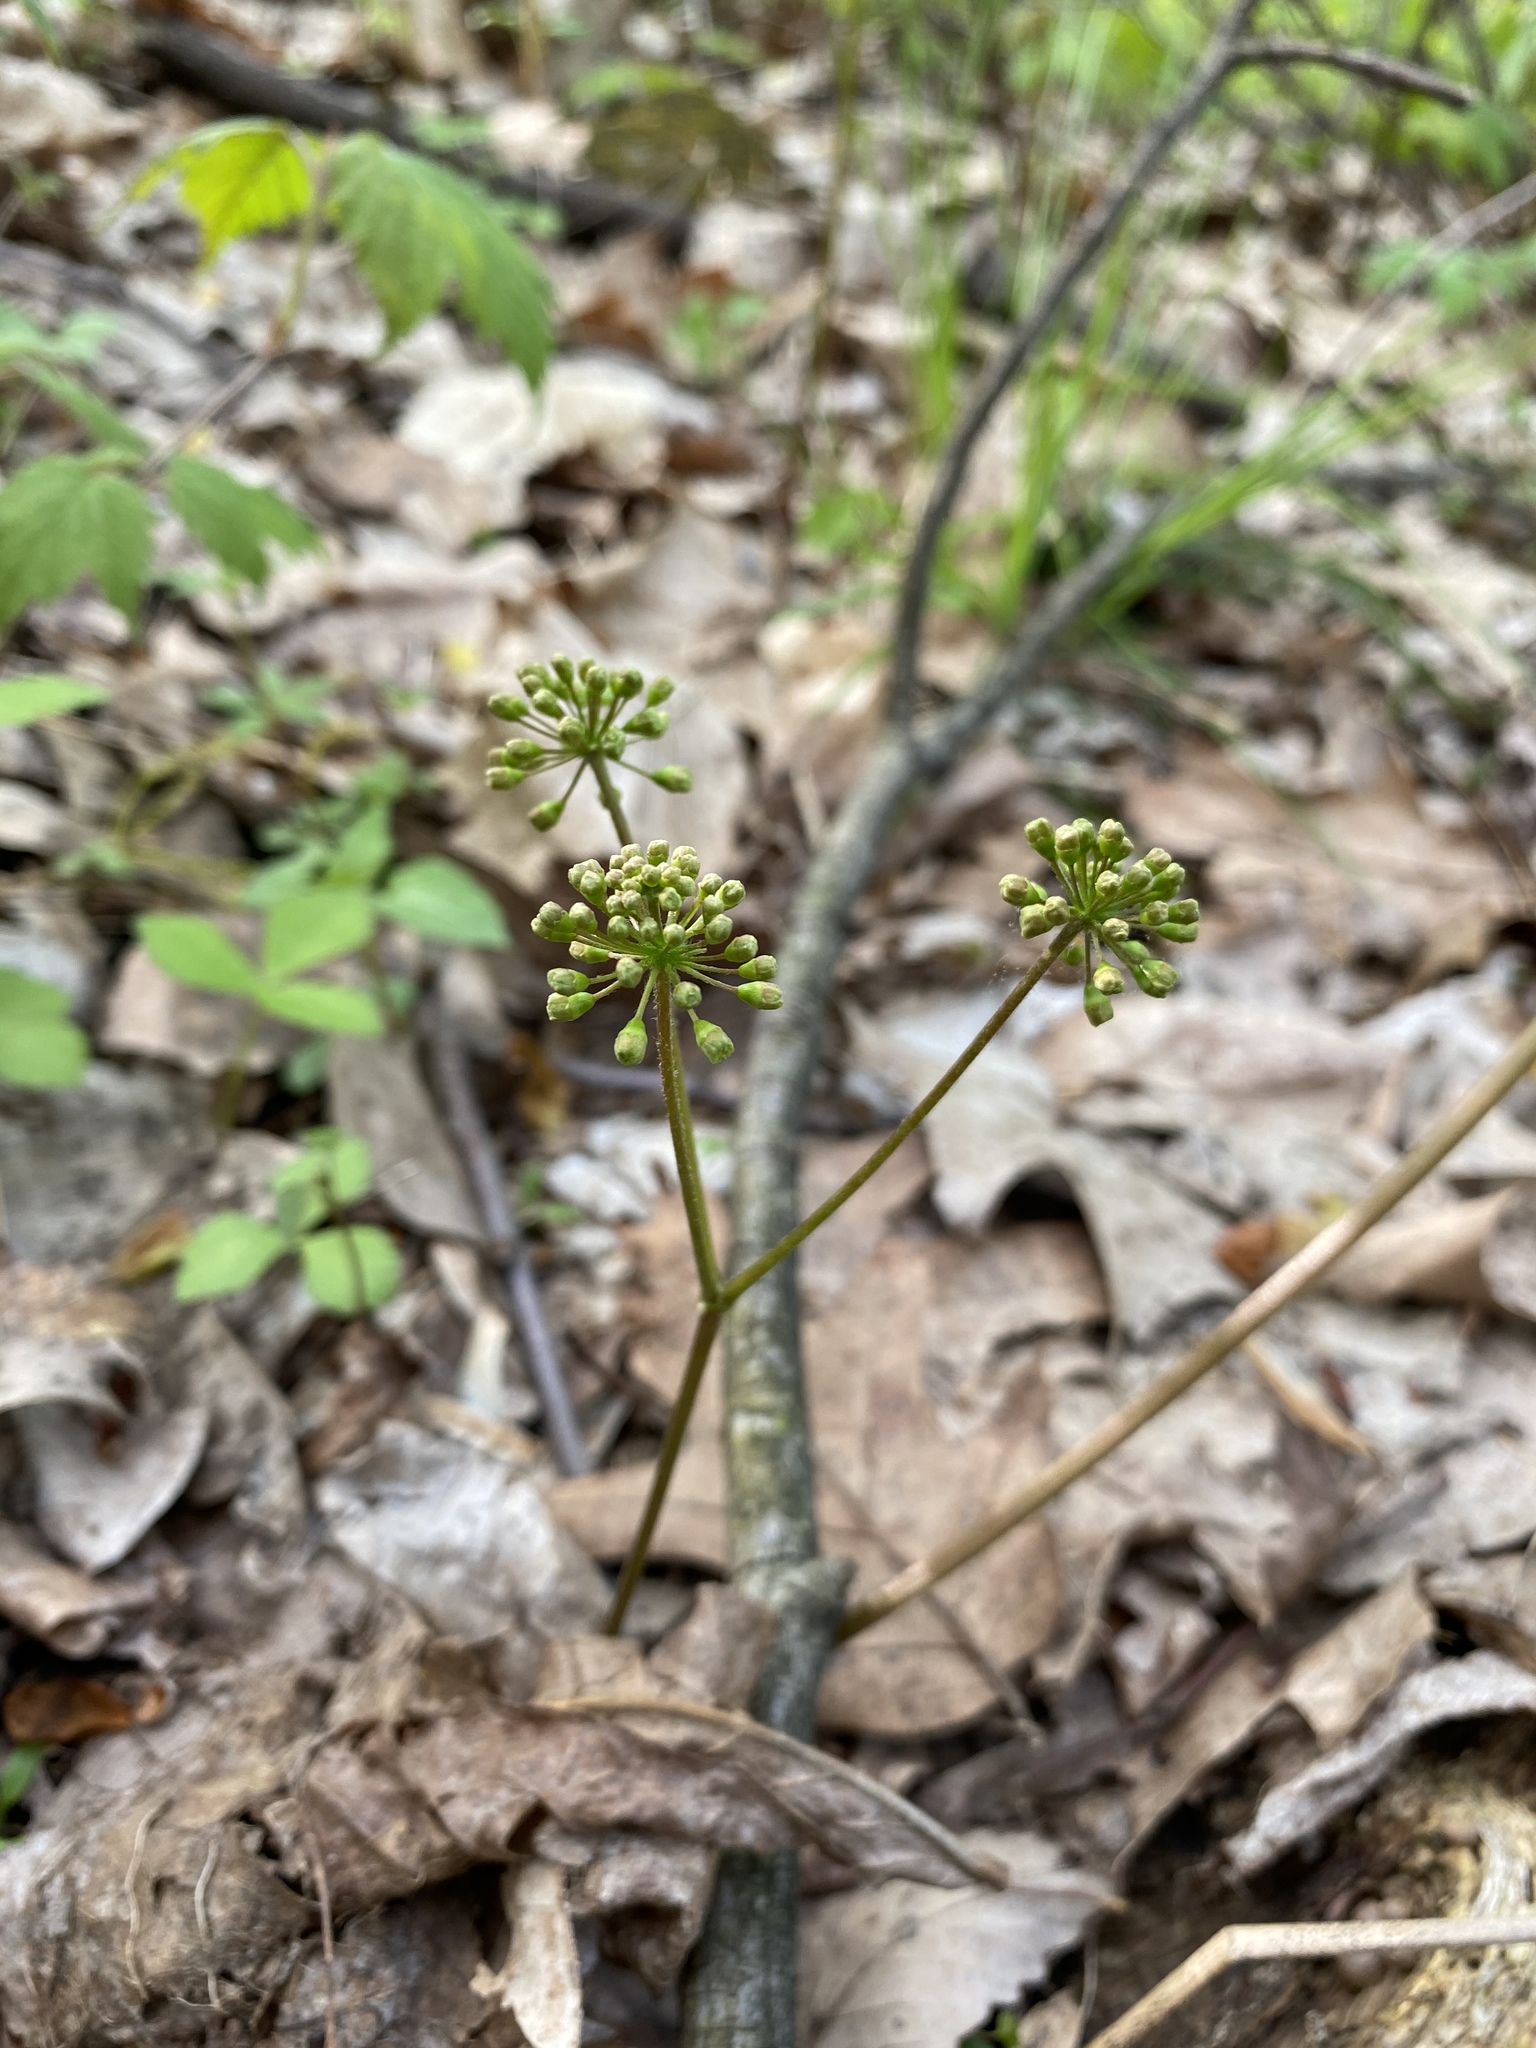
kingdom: Plantae
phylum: Tracheophyta
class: Magnoliopsida
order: Apiales
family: Araliaceae
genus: Aralia
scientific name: Aralia nudicaulis
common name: Wild sarsaparilla
